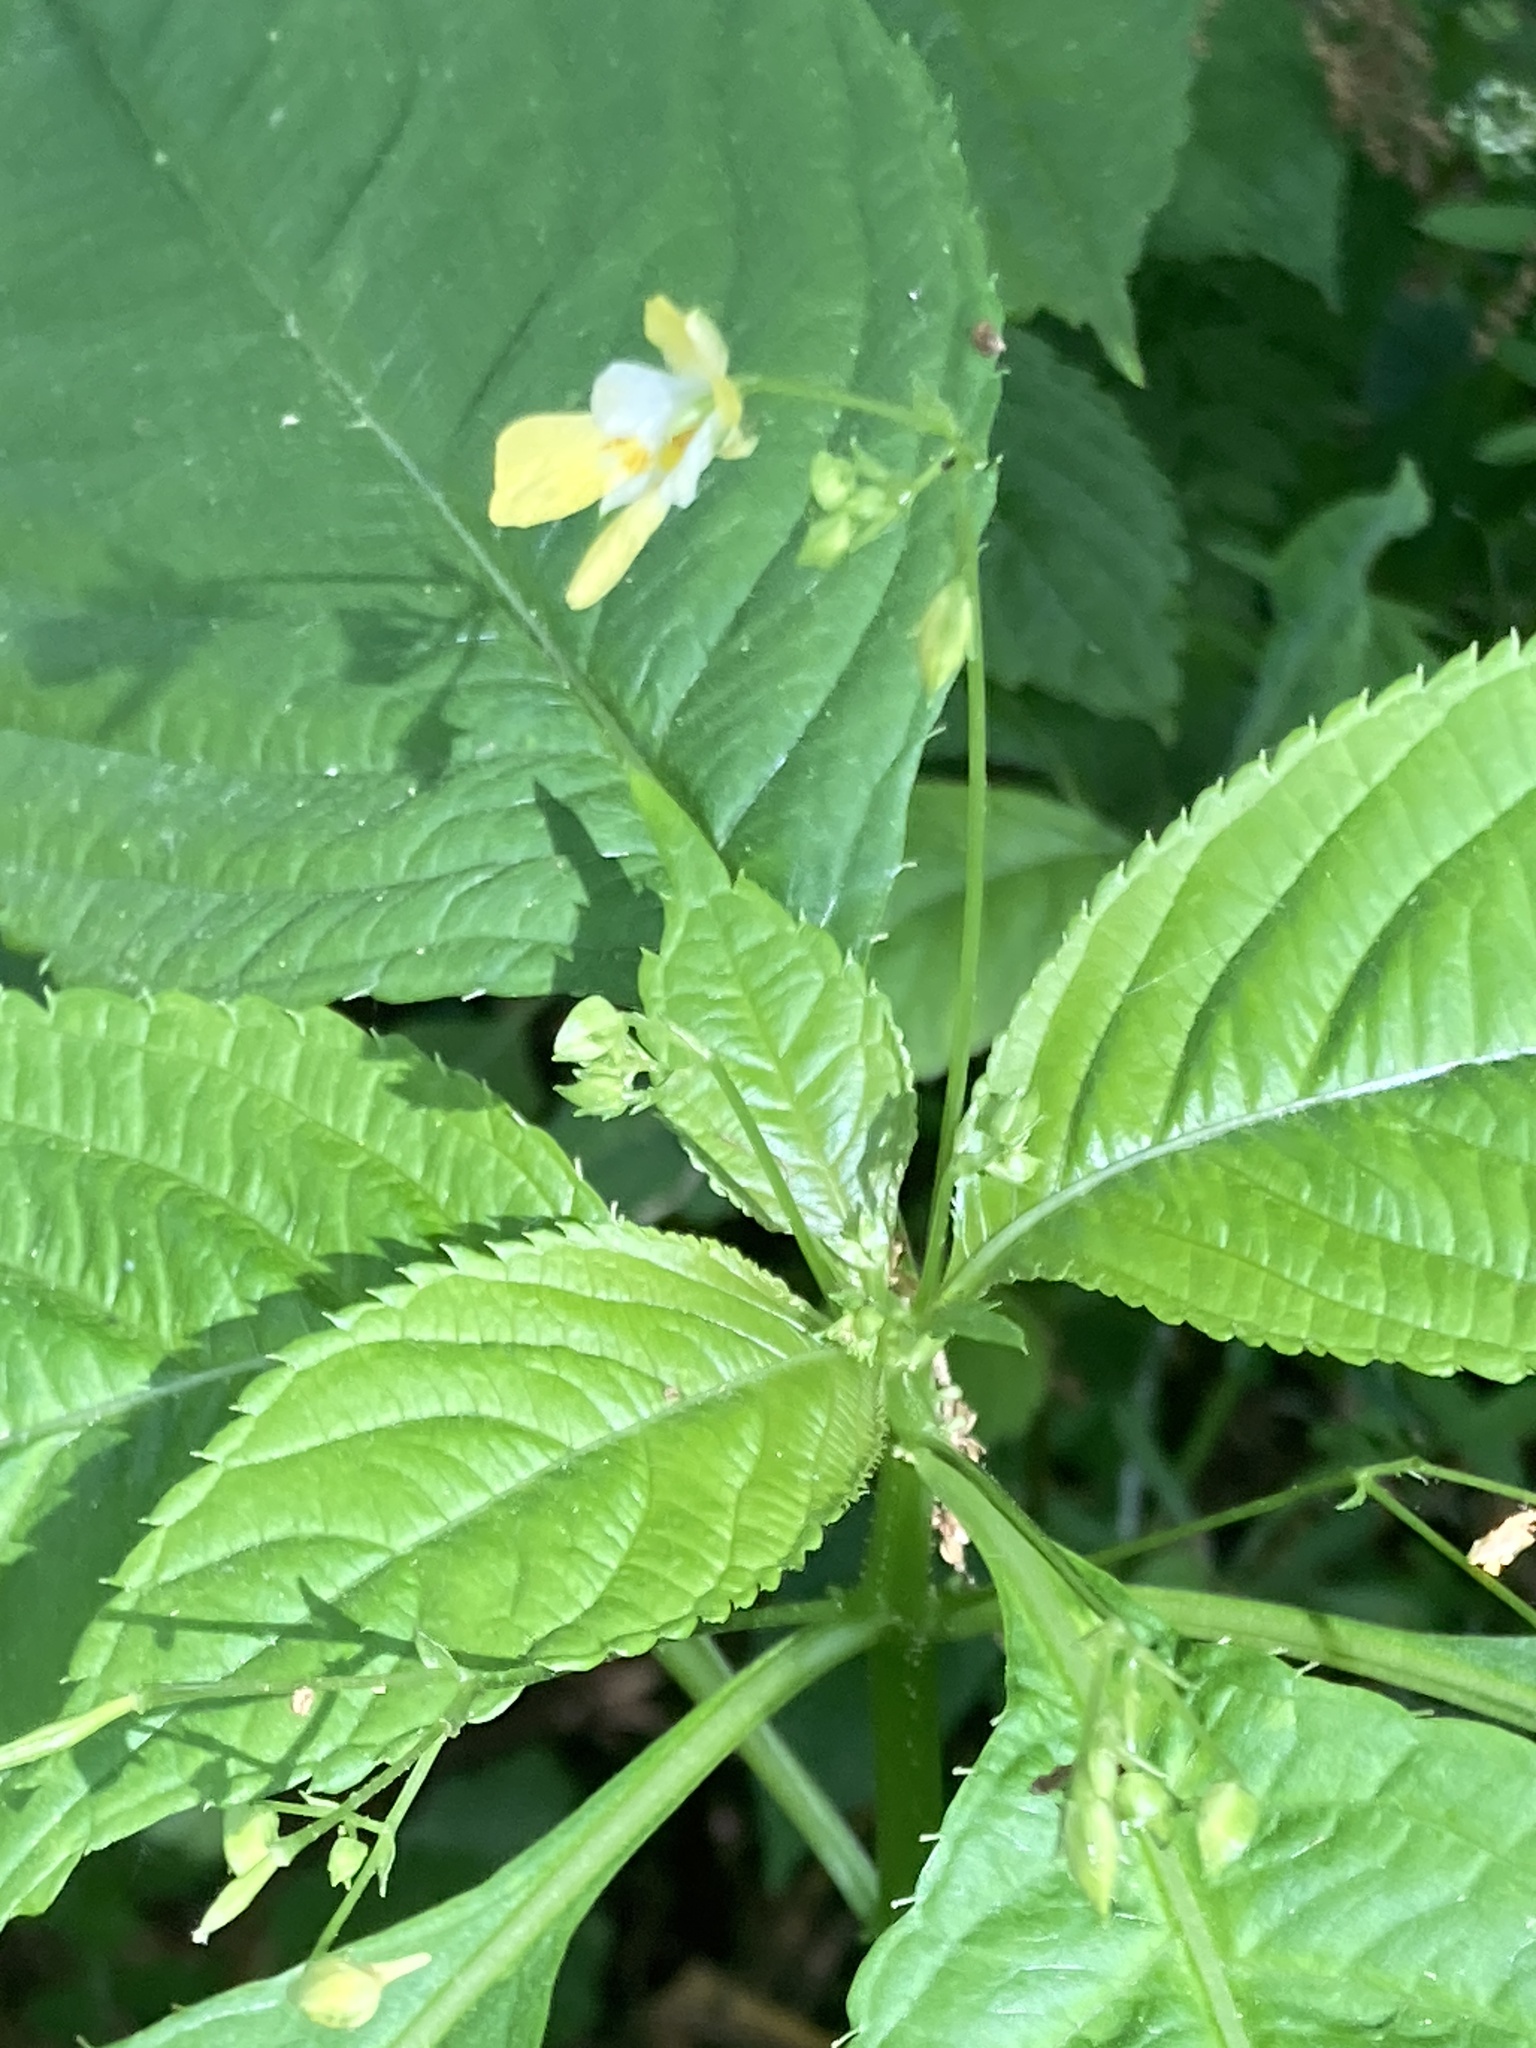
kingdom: Plantae
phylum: Tracheophyta
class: Magnoliopsida
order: Ericales
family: Balsaminaceae
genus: Impatiens
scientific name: Impatiens parviflora
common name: Small balsam
